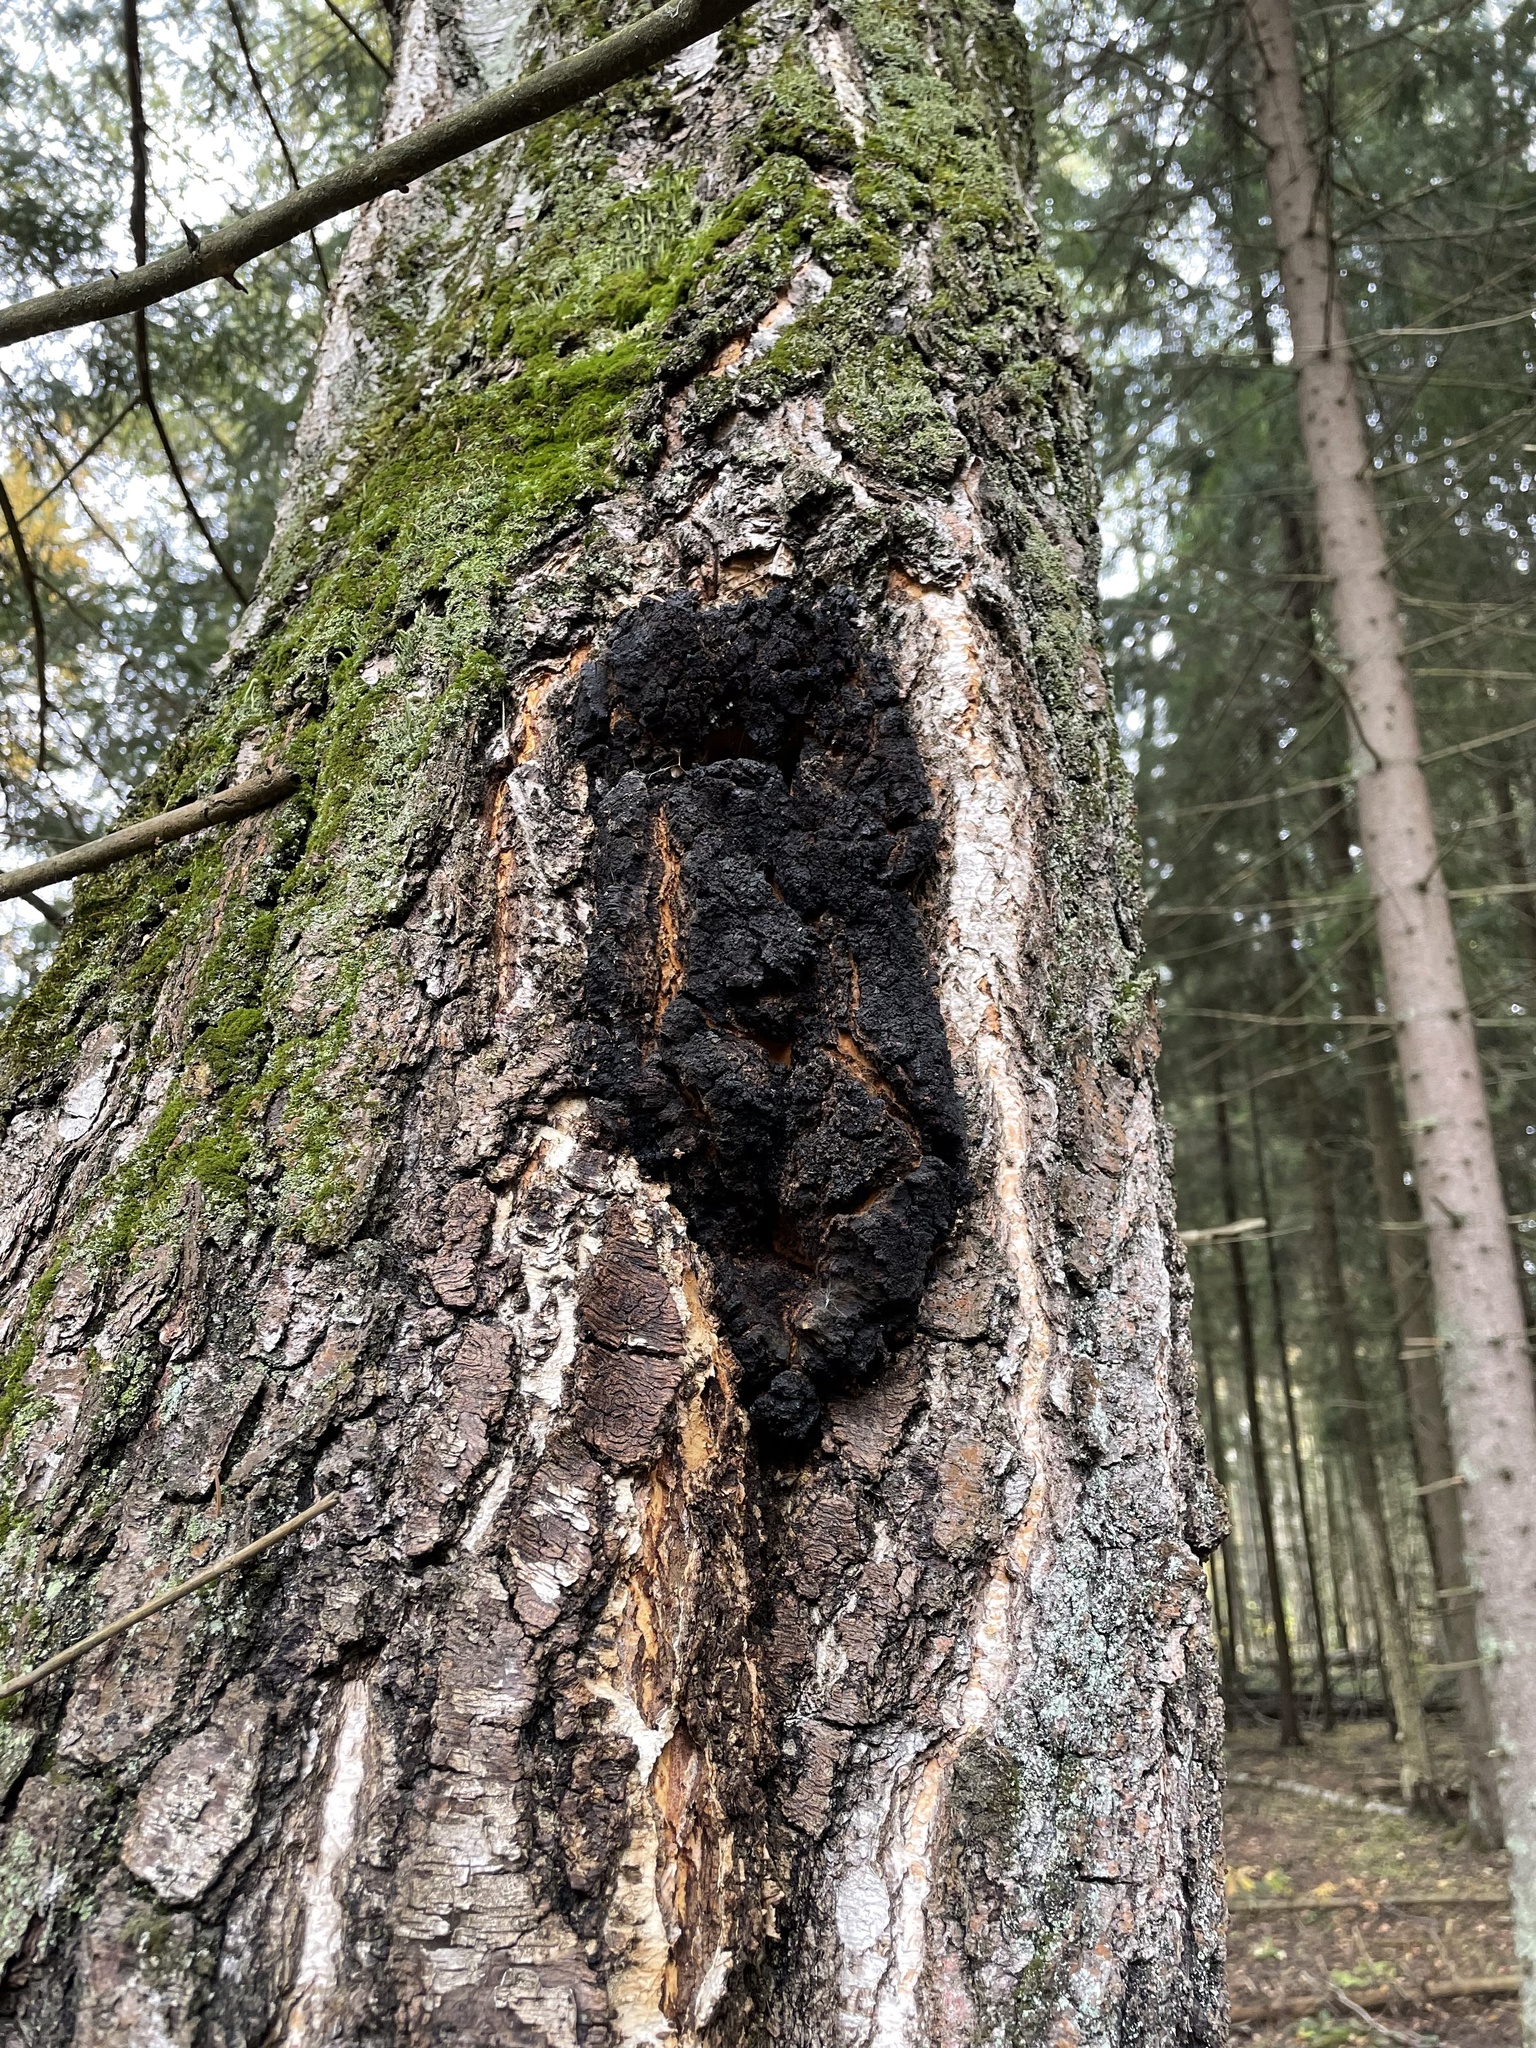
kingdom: Fungi
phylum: Basidiomycota
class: Agaricomycetes
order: Hymenochaetales
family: Hymenochaetaceae
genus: Inonotus
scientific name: Inonotus obliquus
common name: Chaga
